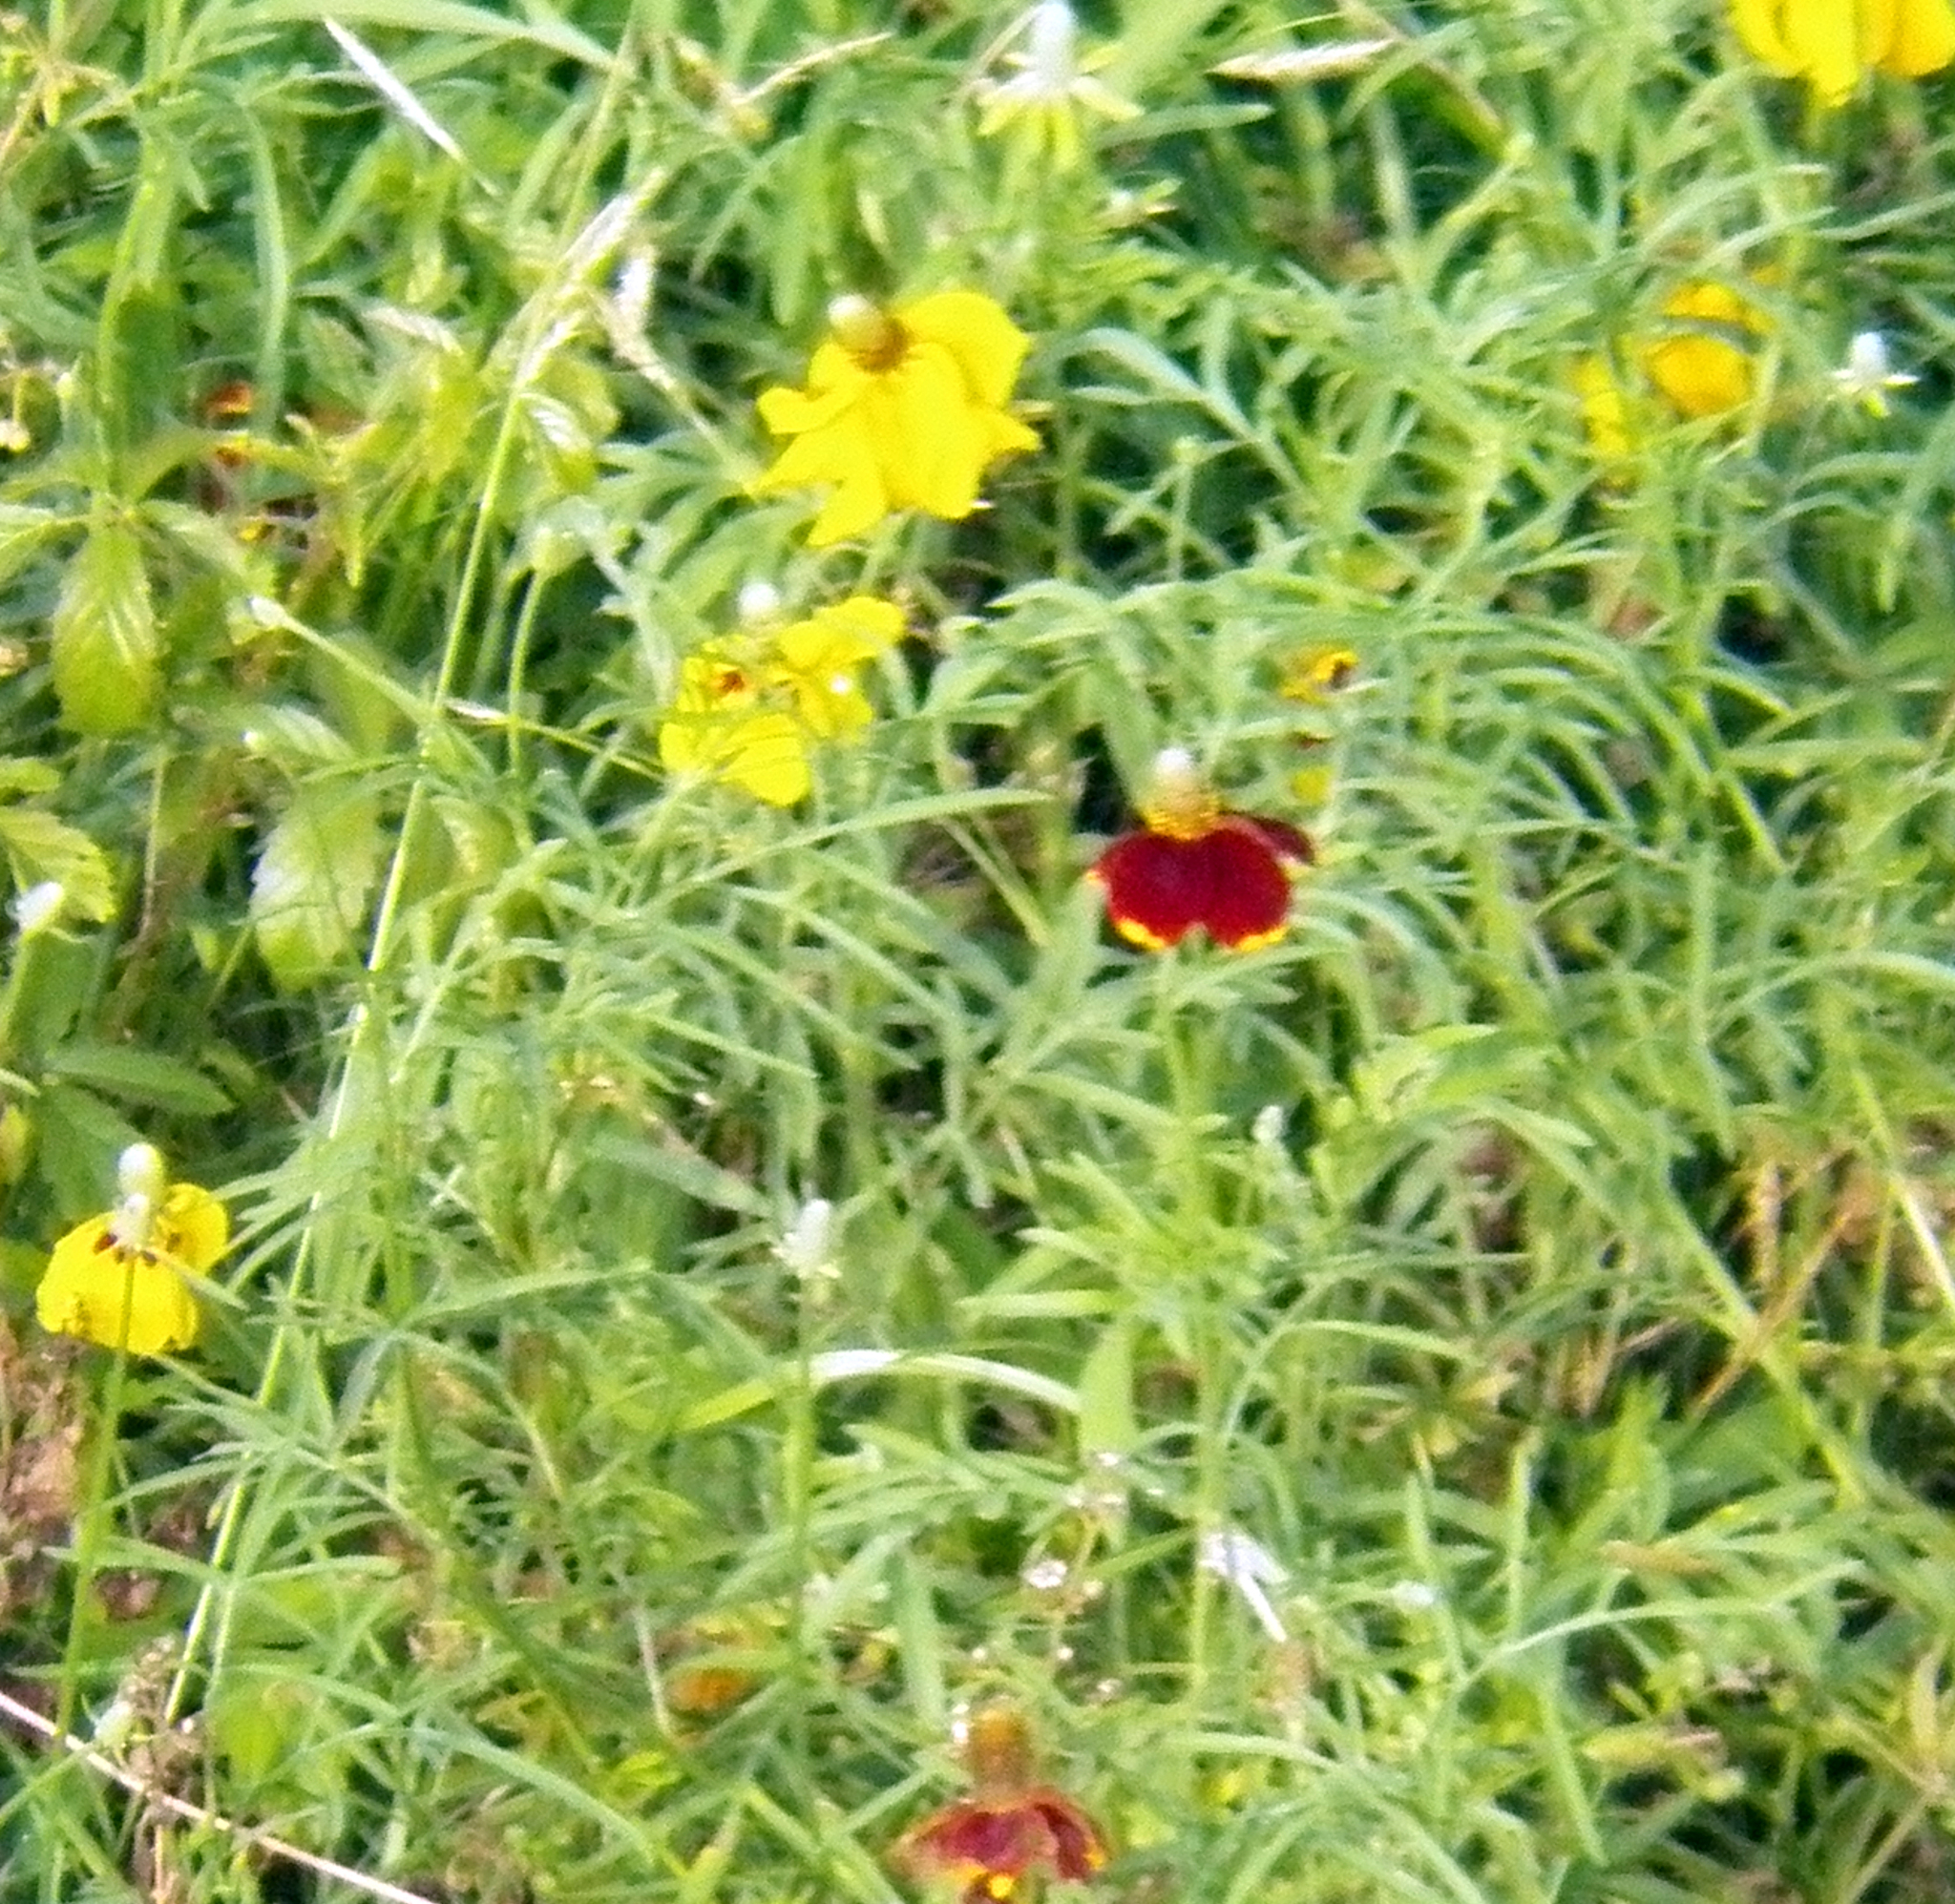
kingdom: Plantae
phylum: Tracheophyta
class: Magnoliopsida
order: Asterales
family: Asteraceae
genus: Ratibida
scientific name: Ratibida columnifera
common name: Prairie coneflower
